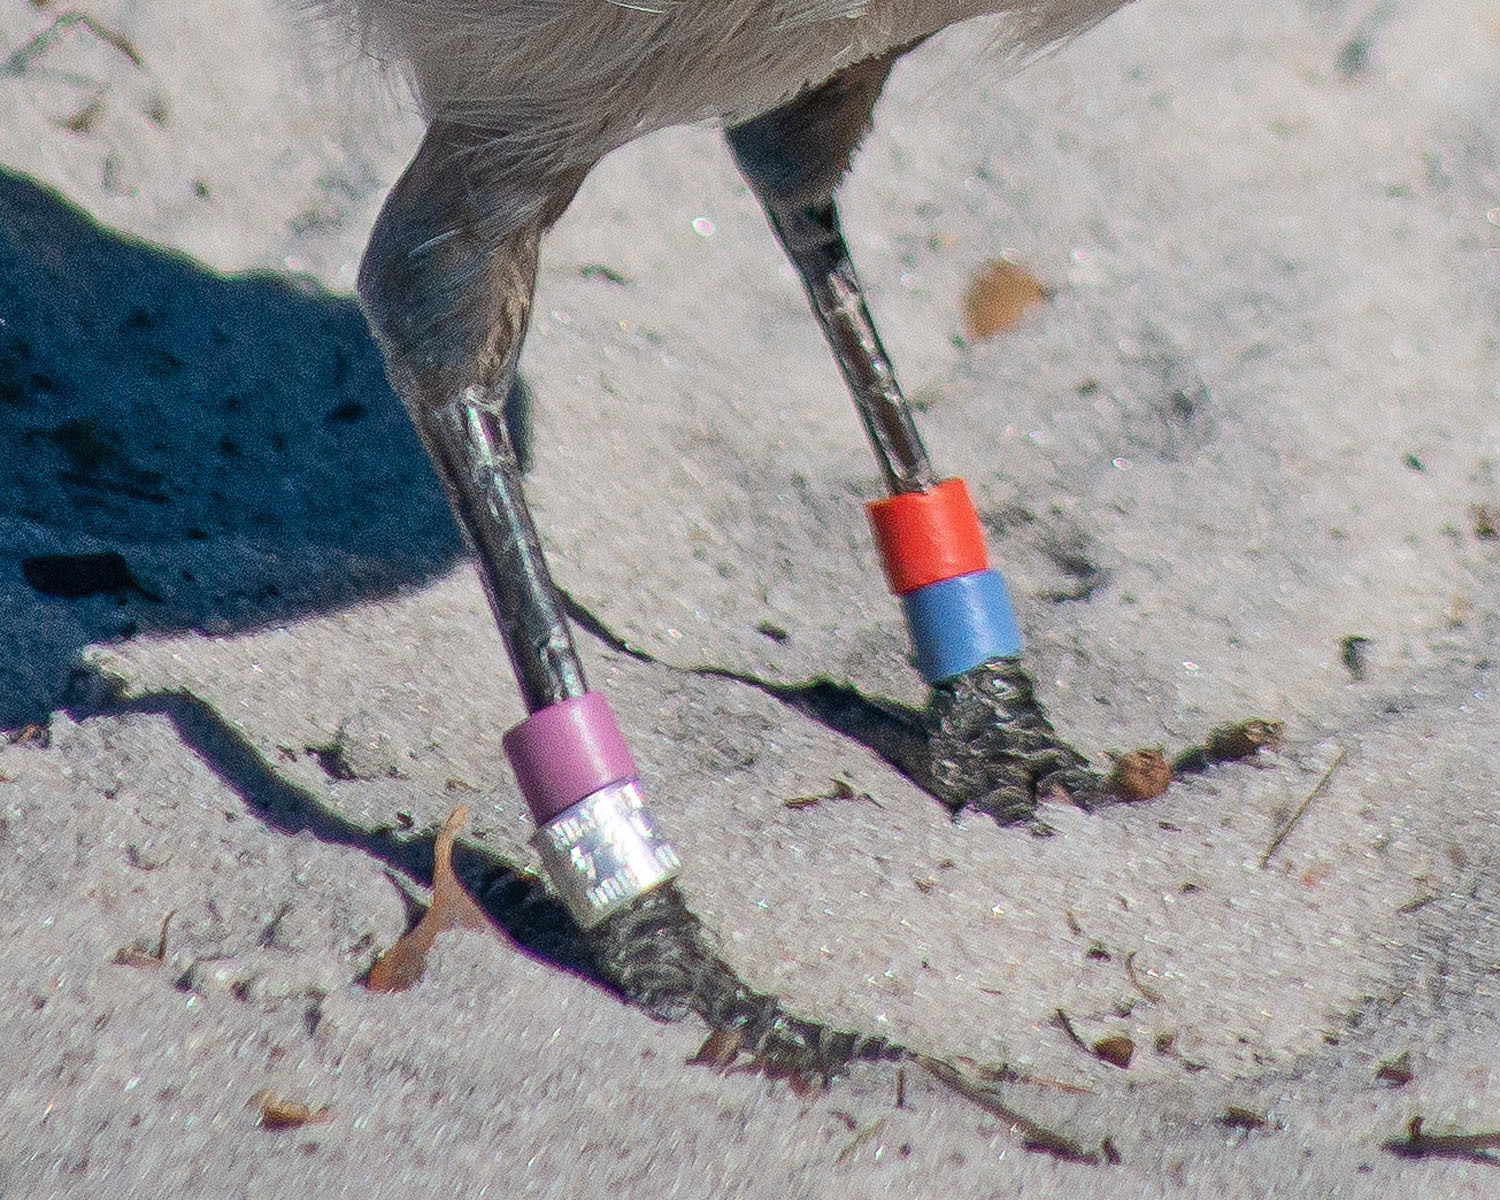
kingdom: Animalia
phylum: Chordata
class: Aves
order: Passeriformes
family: Corvidae
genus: Aphelocoma
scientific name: Aphelocoma coerulescens
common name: Florida scrub jay
